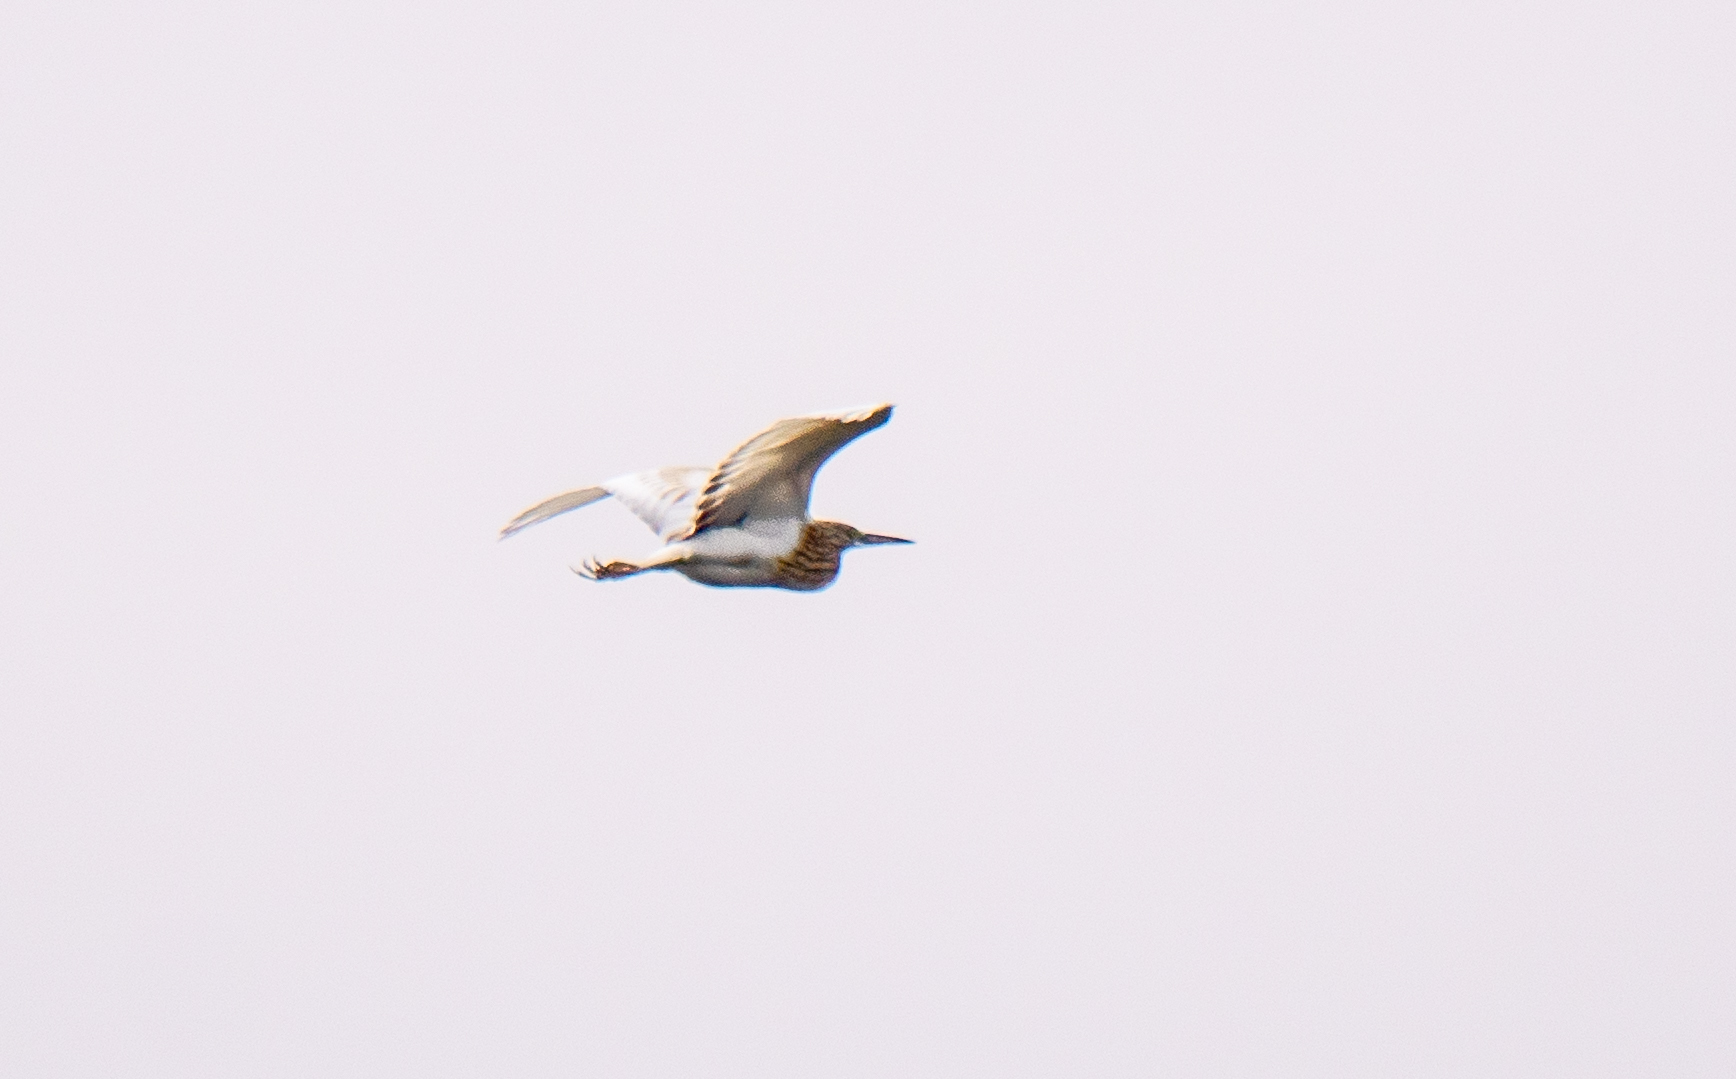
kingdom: Animalia
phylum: Chordata
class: Aves
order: Pelecaniformes
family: Ardeidae
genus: Ardeola
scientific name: Ardeola ralloides
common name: Squacco heron
